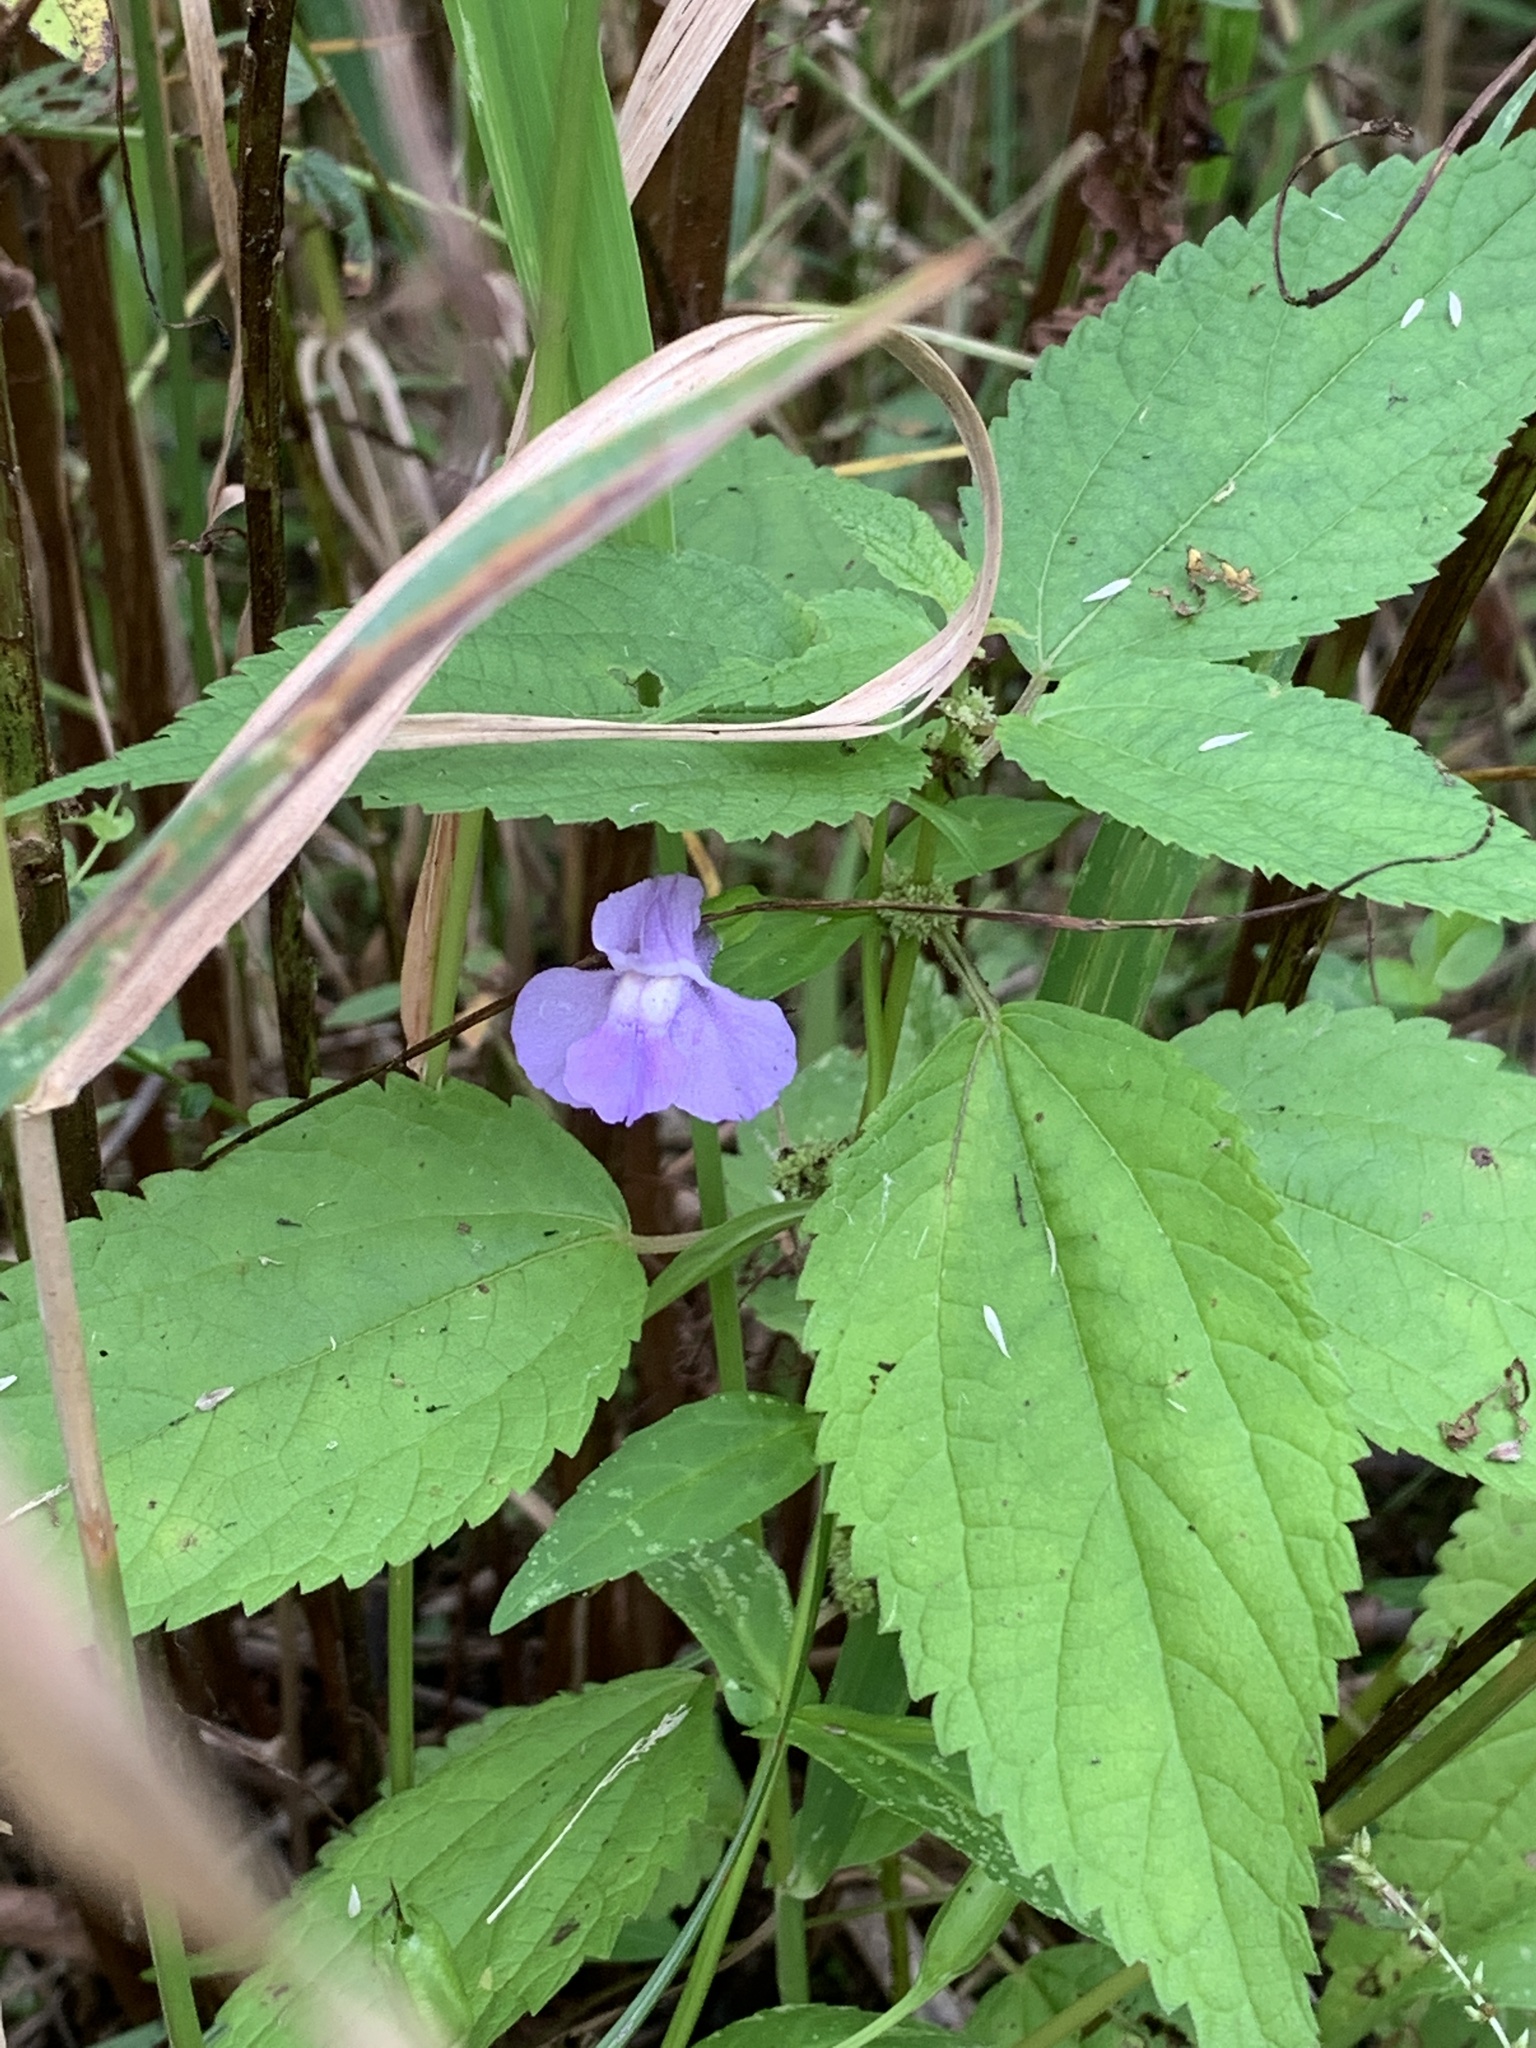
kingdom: Plantae
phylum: Tracheophyta
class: Magnoliopsida
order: Lamiales
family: Phrymaceae
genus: Mimulus
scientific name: Mimulus ringens
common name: Allegheny monkeyflower
